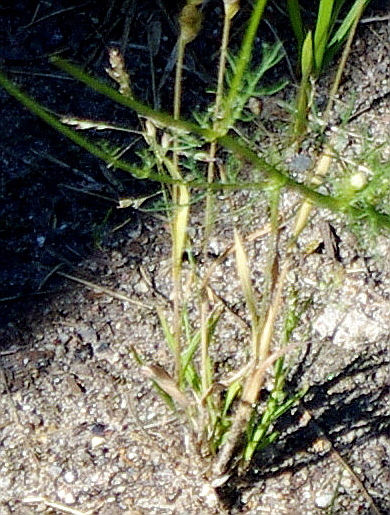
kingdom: Plantae
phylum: Tracheophyta
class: Liliopsida
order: Poales
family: Poaceae
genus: Poa
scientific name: Poa annua
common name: Annual bluegrass
